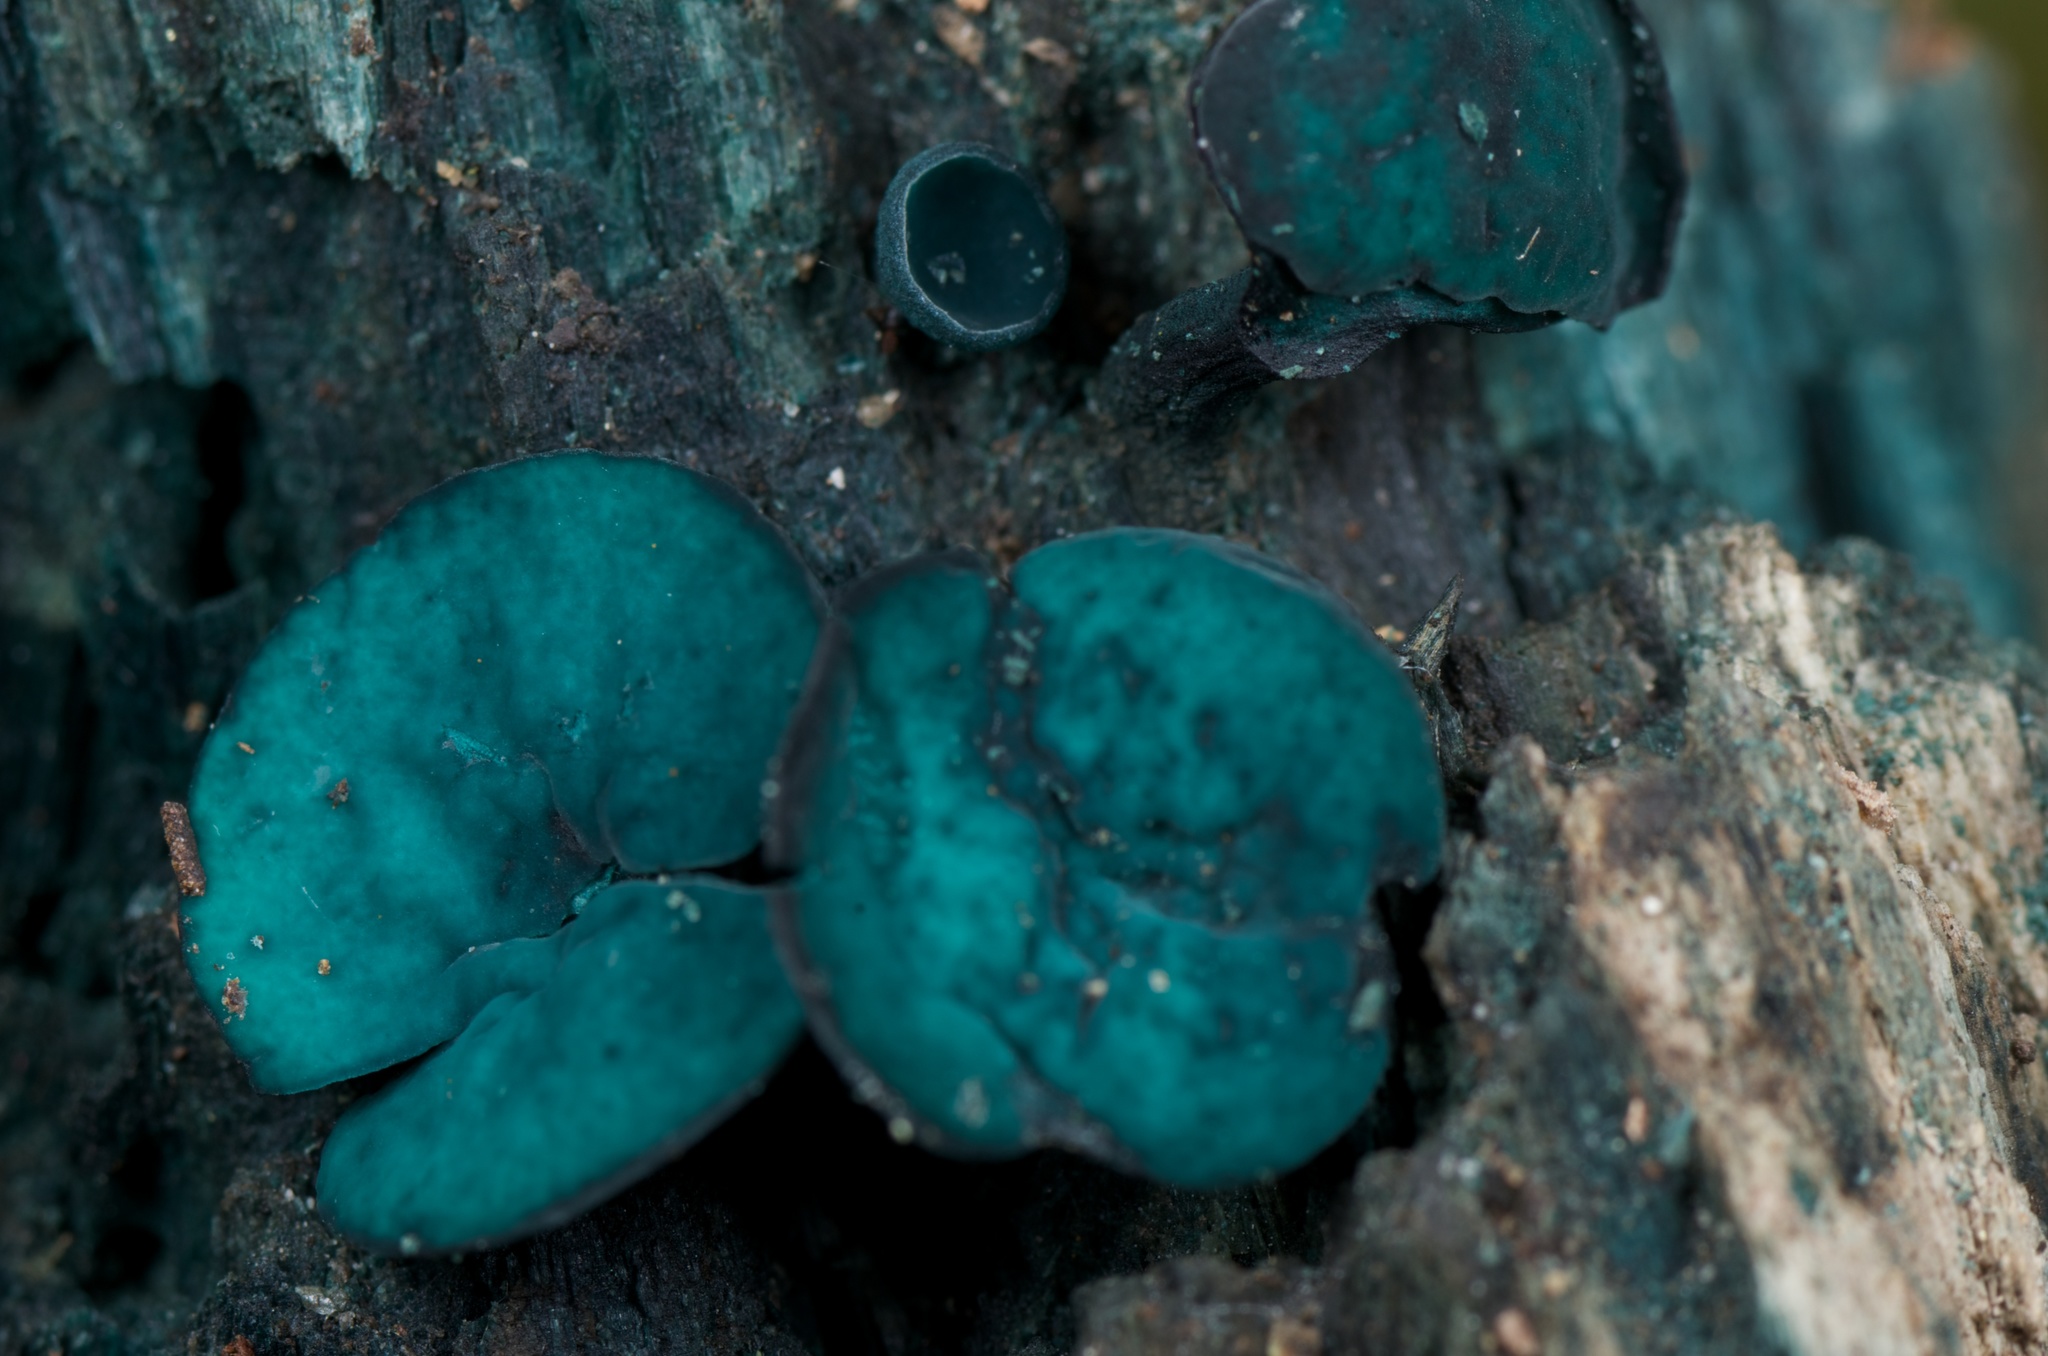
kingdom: Fungi
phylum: Ascomycota
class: Leotiomycetes
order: Helotiales
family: Chlorociboriaceae
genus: Chlorociboria
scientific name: Chlorociboria
